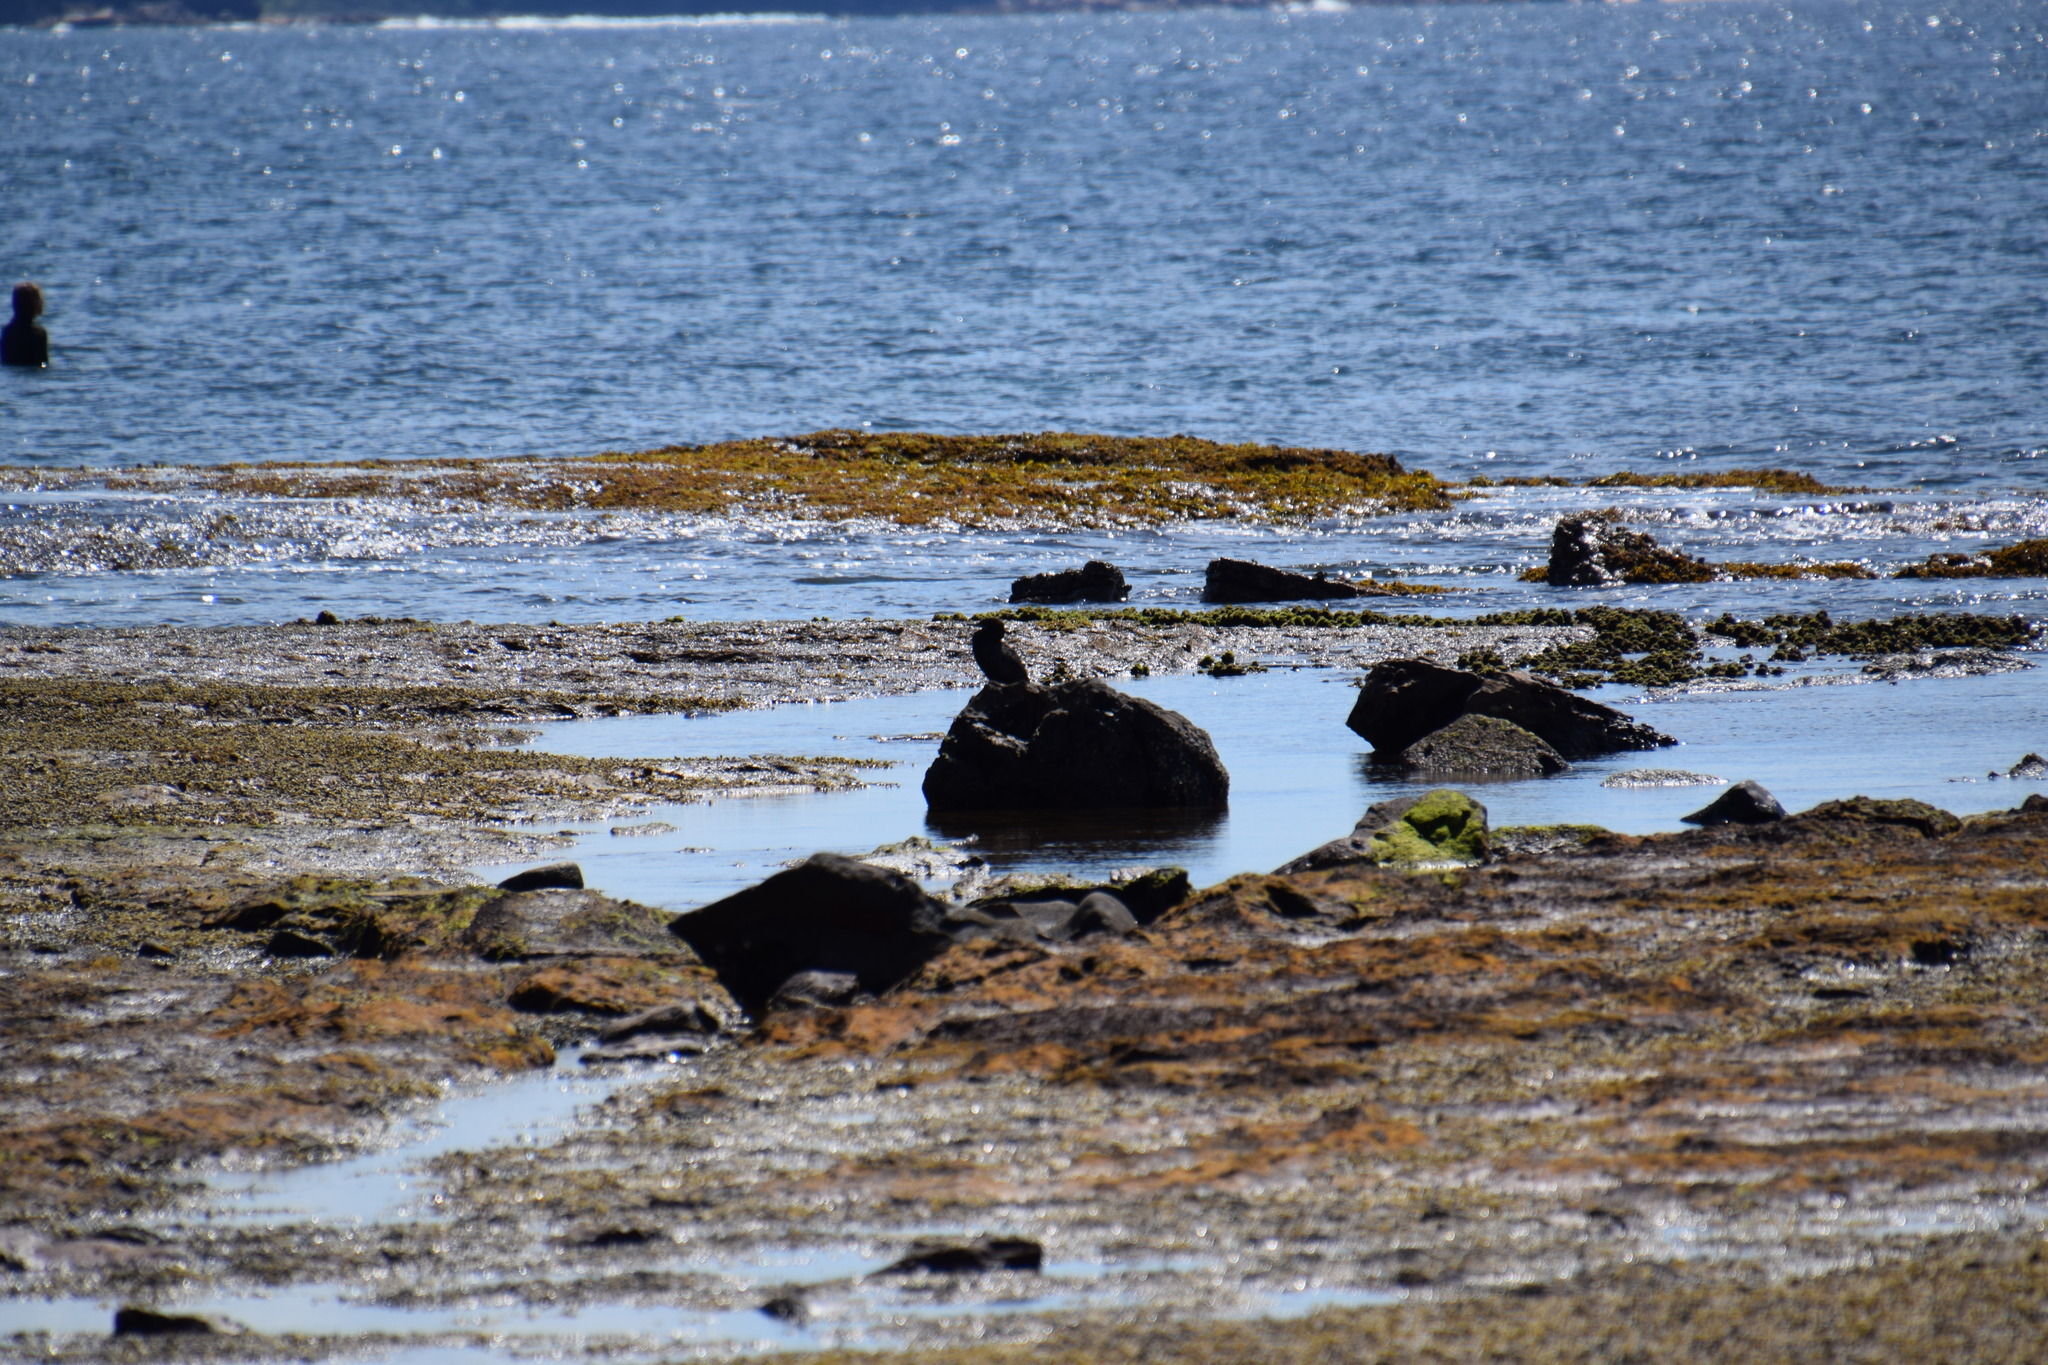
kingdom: Animalia
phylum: Chordata
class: Aves
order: Suliformes
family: Phalacrocoracidae
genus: Phalacrocorax
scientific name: Phalacrocorax sulcirostris
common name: Little black cormorant
